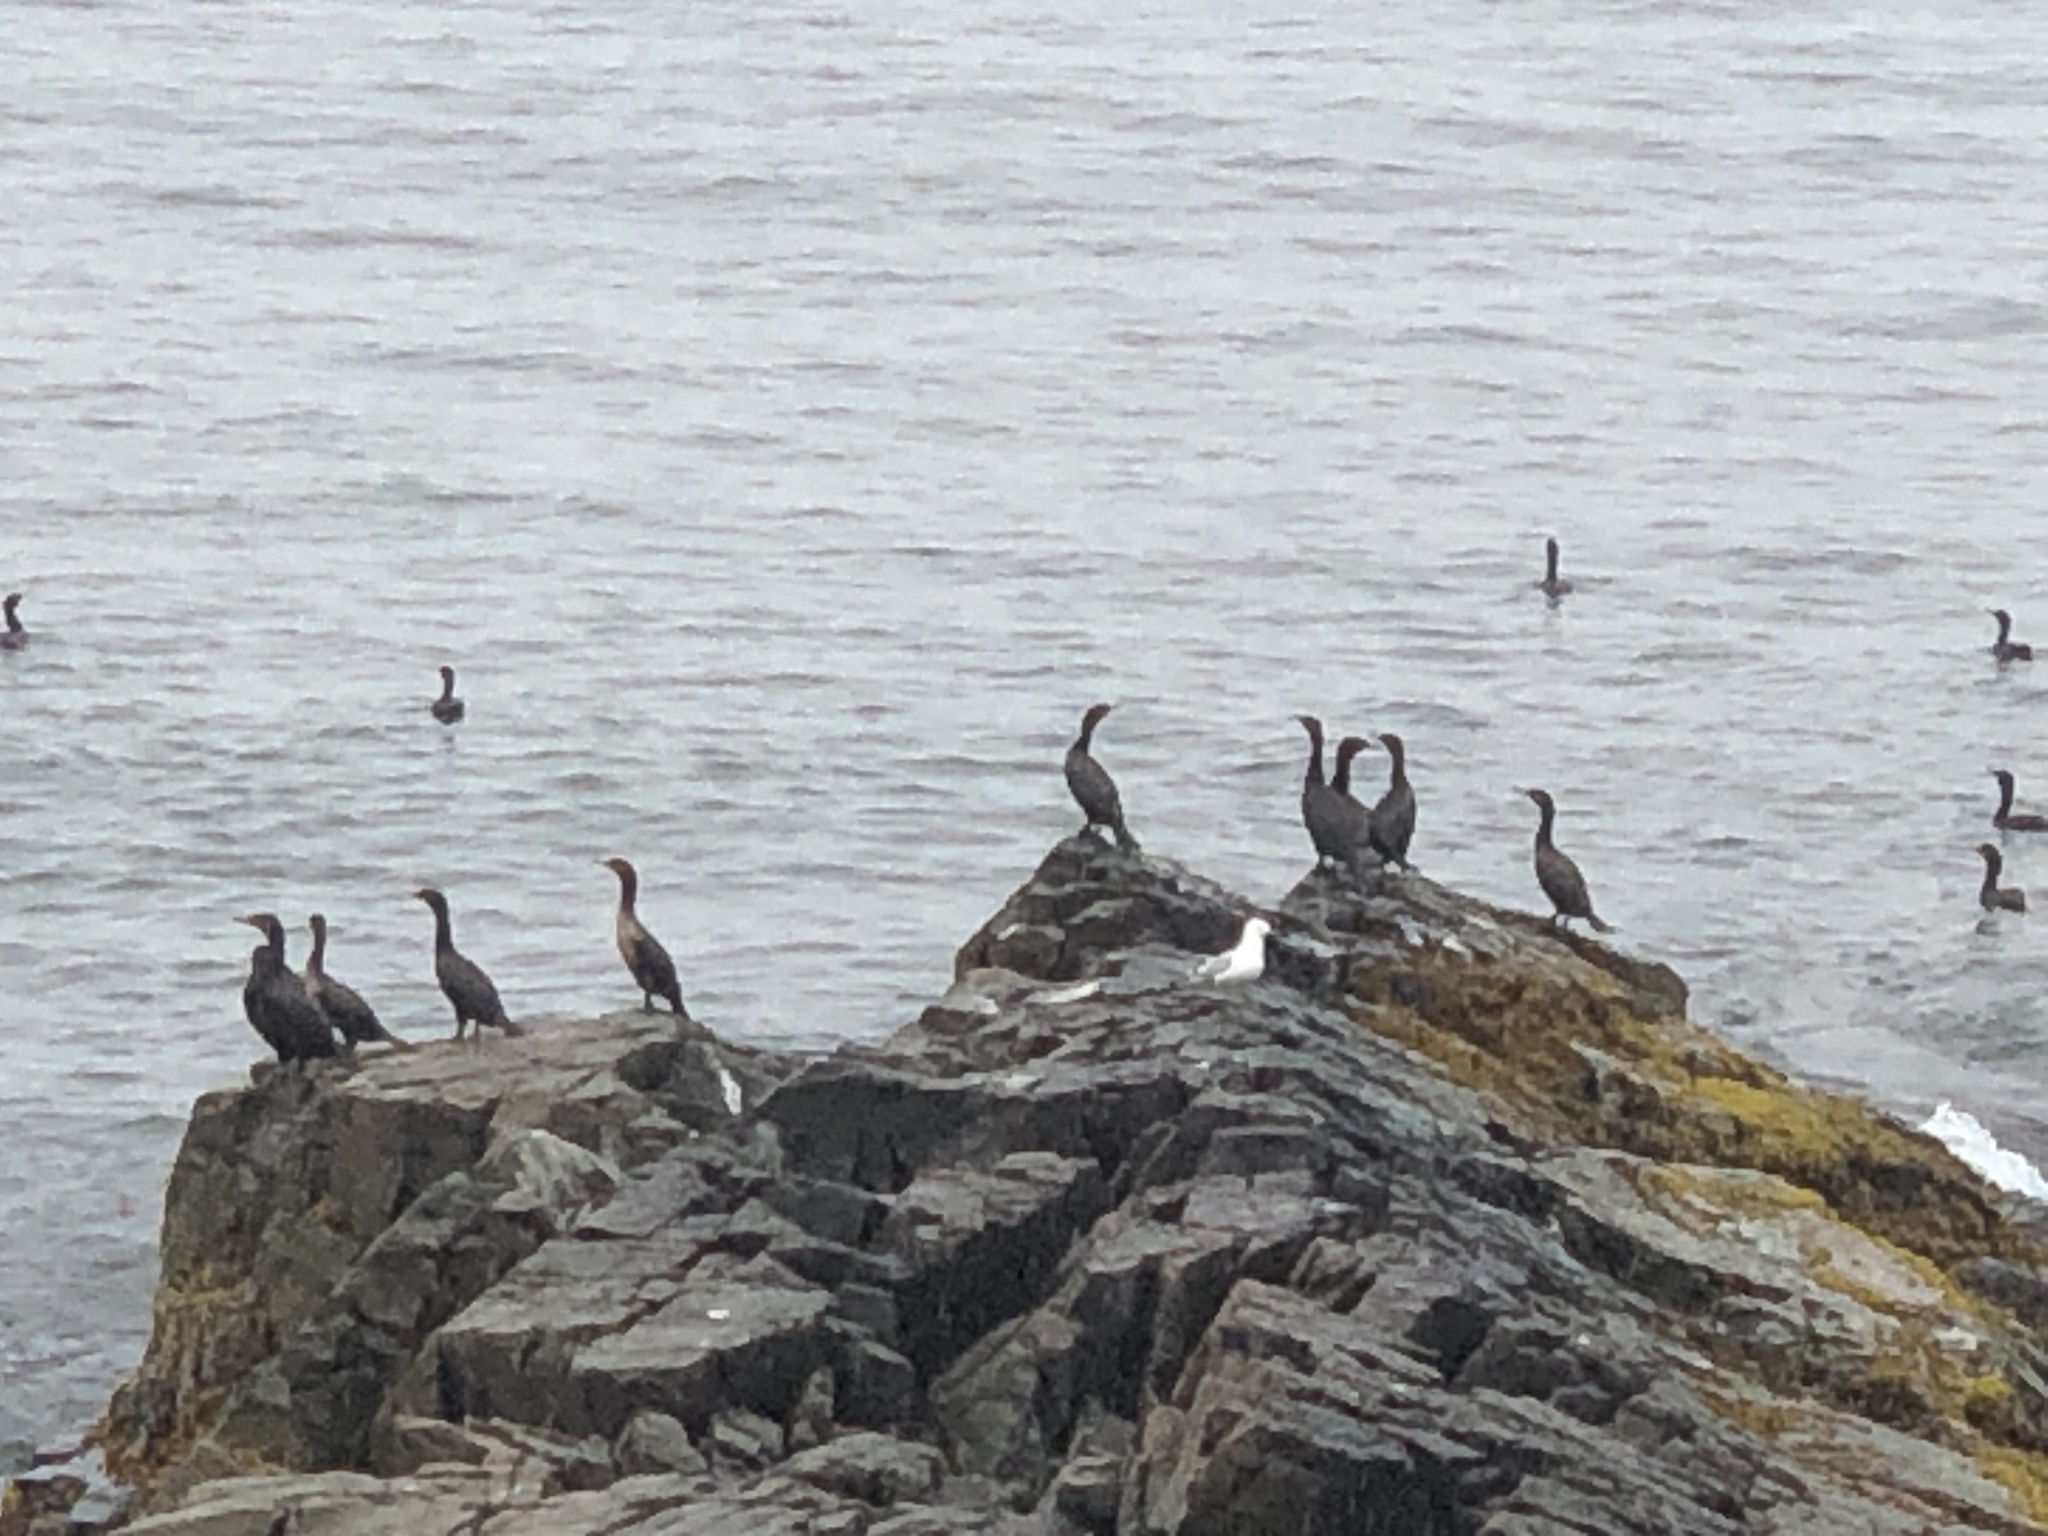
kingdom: Animalia
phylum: Chordata
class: Aves
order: Suliformes
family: Phalacrocoracidae
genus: Phalacrocorax
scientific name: Phalacrocorax auritus
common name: Double-crested cormorant
